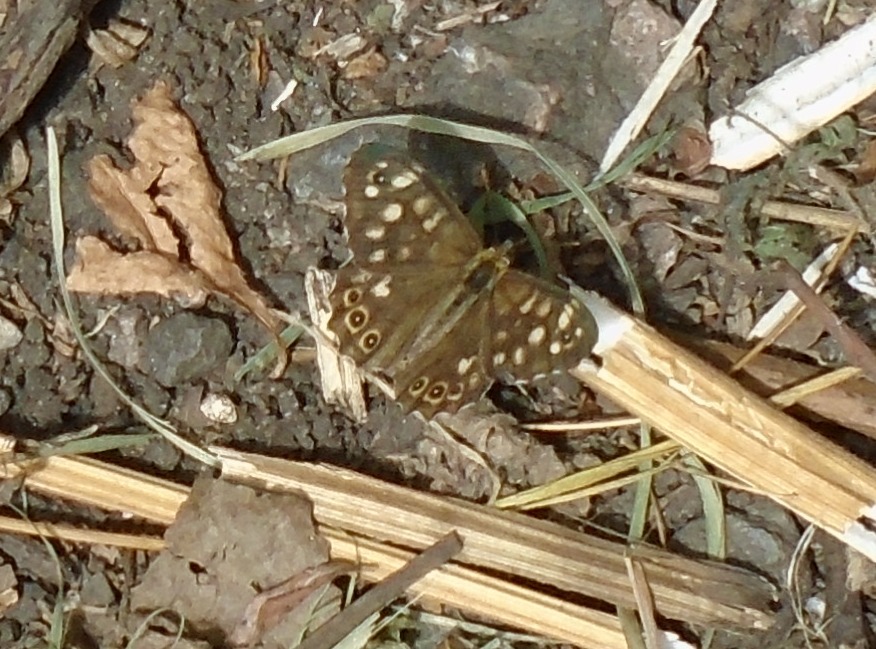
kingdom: Animalia
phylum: Arthropoda
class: Insecta
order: Lepidoptera
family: Nymphalidae
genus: Pararge
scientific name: Pararge aegeria
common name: Speckled wood
